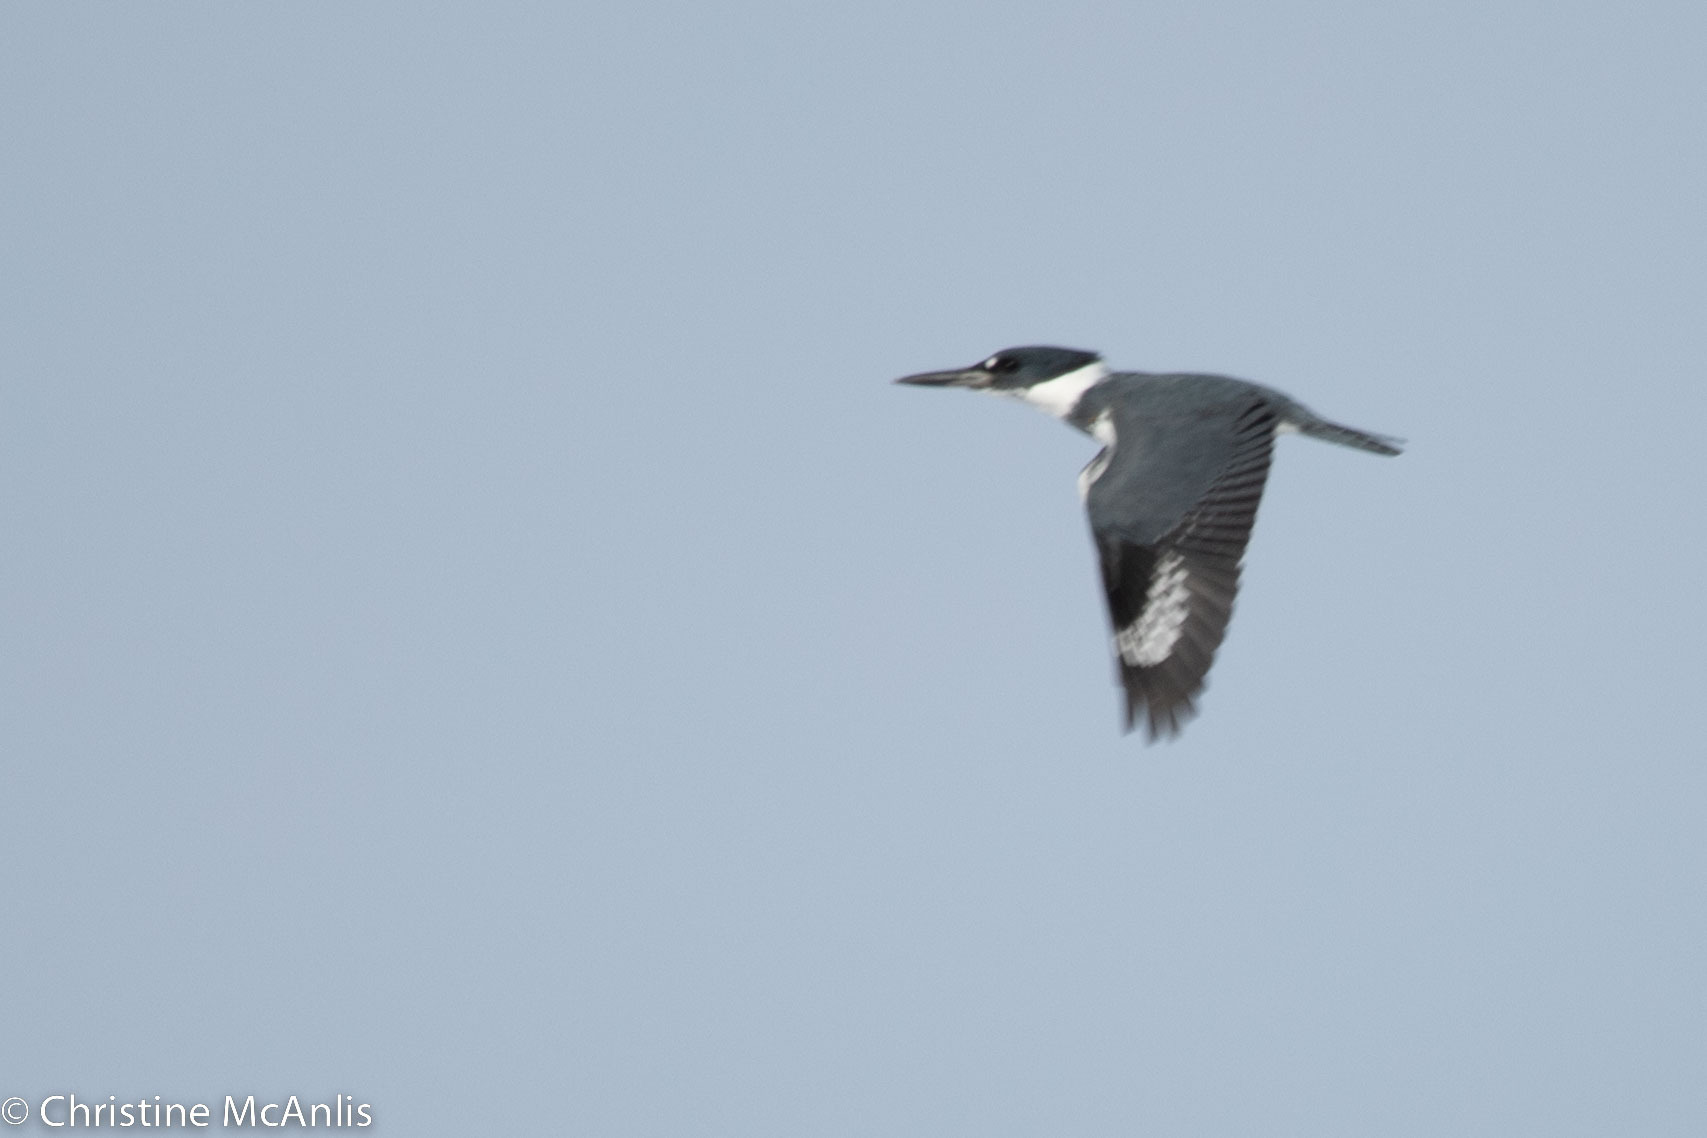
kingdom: Animalia
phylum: Chordata
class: Aves
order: Coraciiformes
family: Alcedinidae
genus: Megaceryle
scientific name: Megaceryle alcyon
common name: Belted kingfisher
